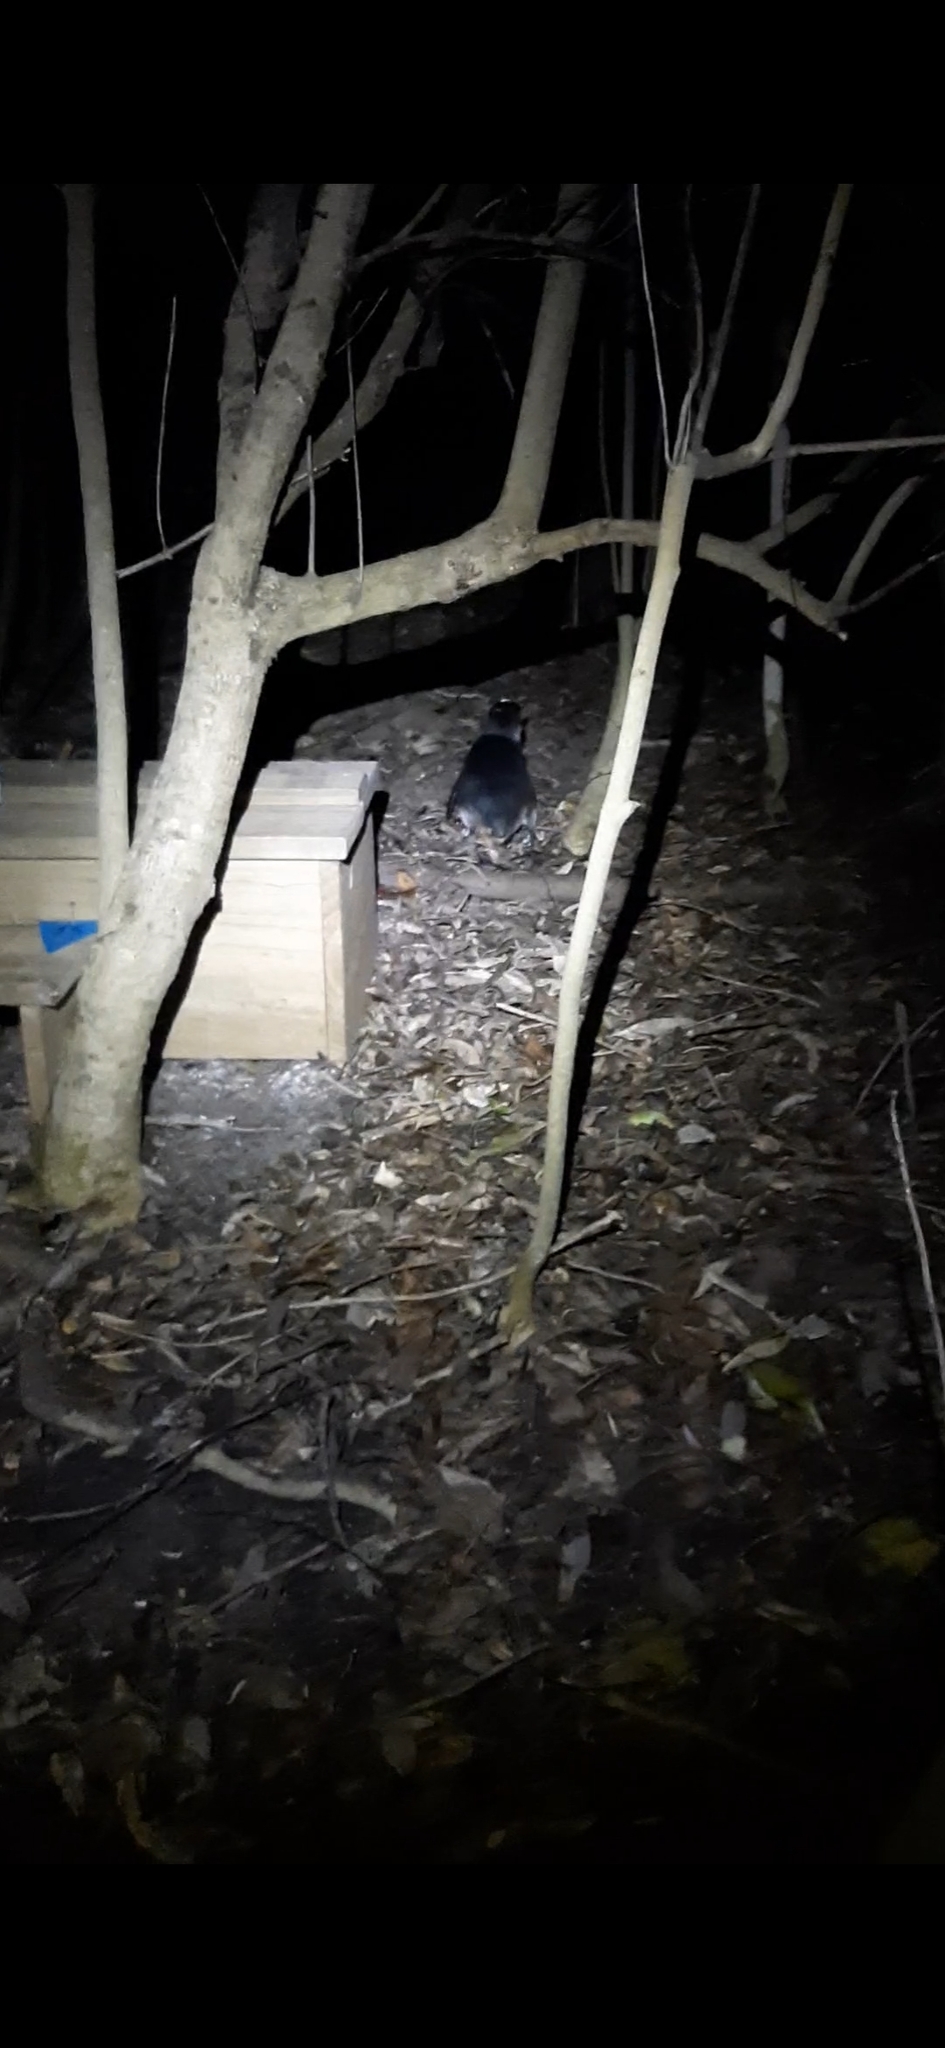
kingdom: Animalia
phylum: Chordata
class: Aves
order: Sphenisciformes
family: Spheniscidae
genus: Eudyptula
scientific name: Eudyptula minor
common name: Little penguin
